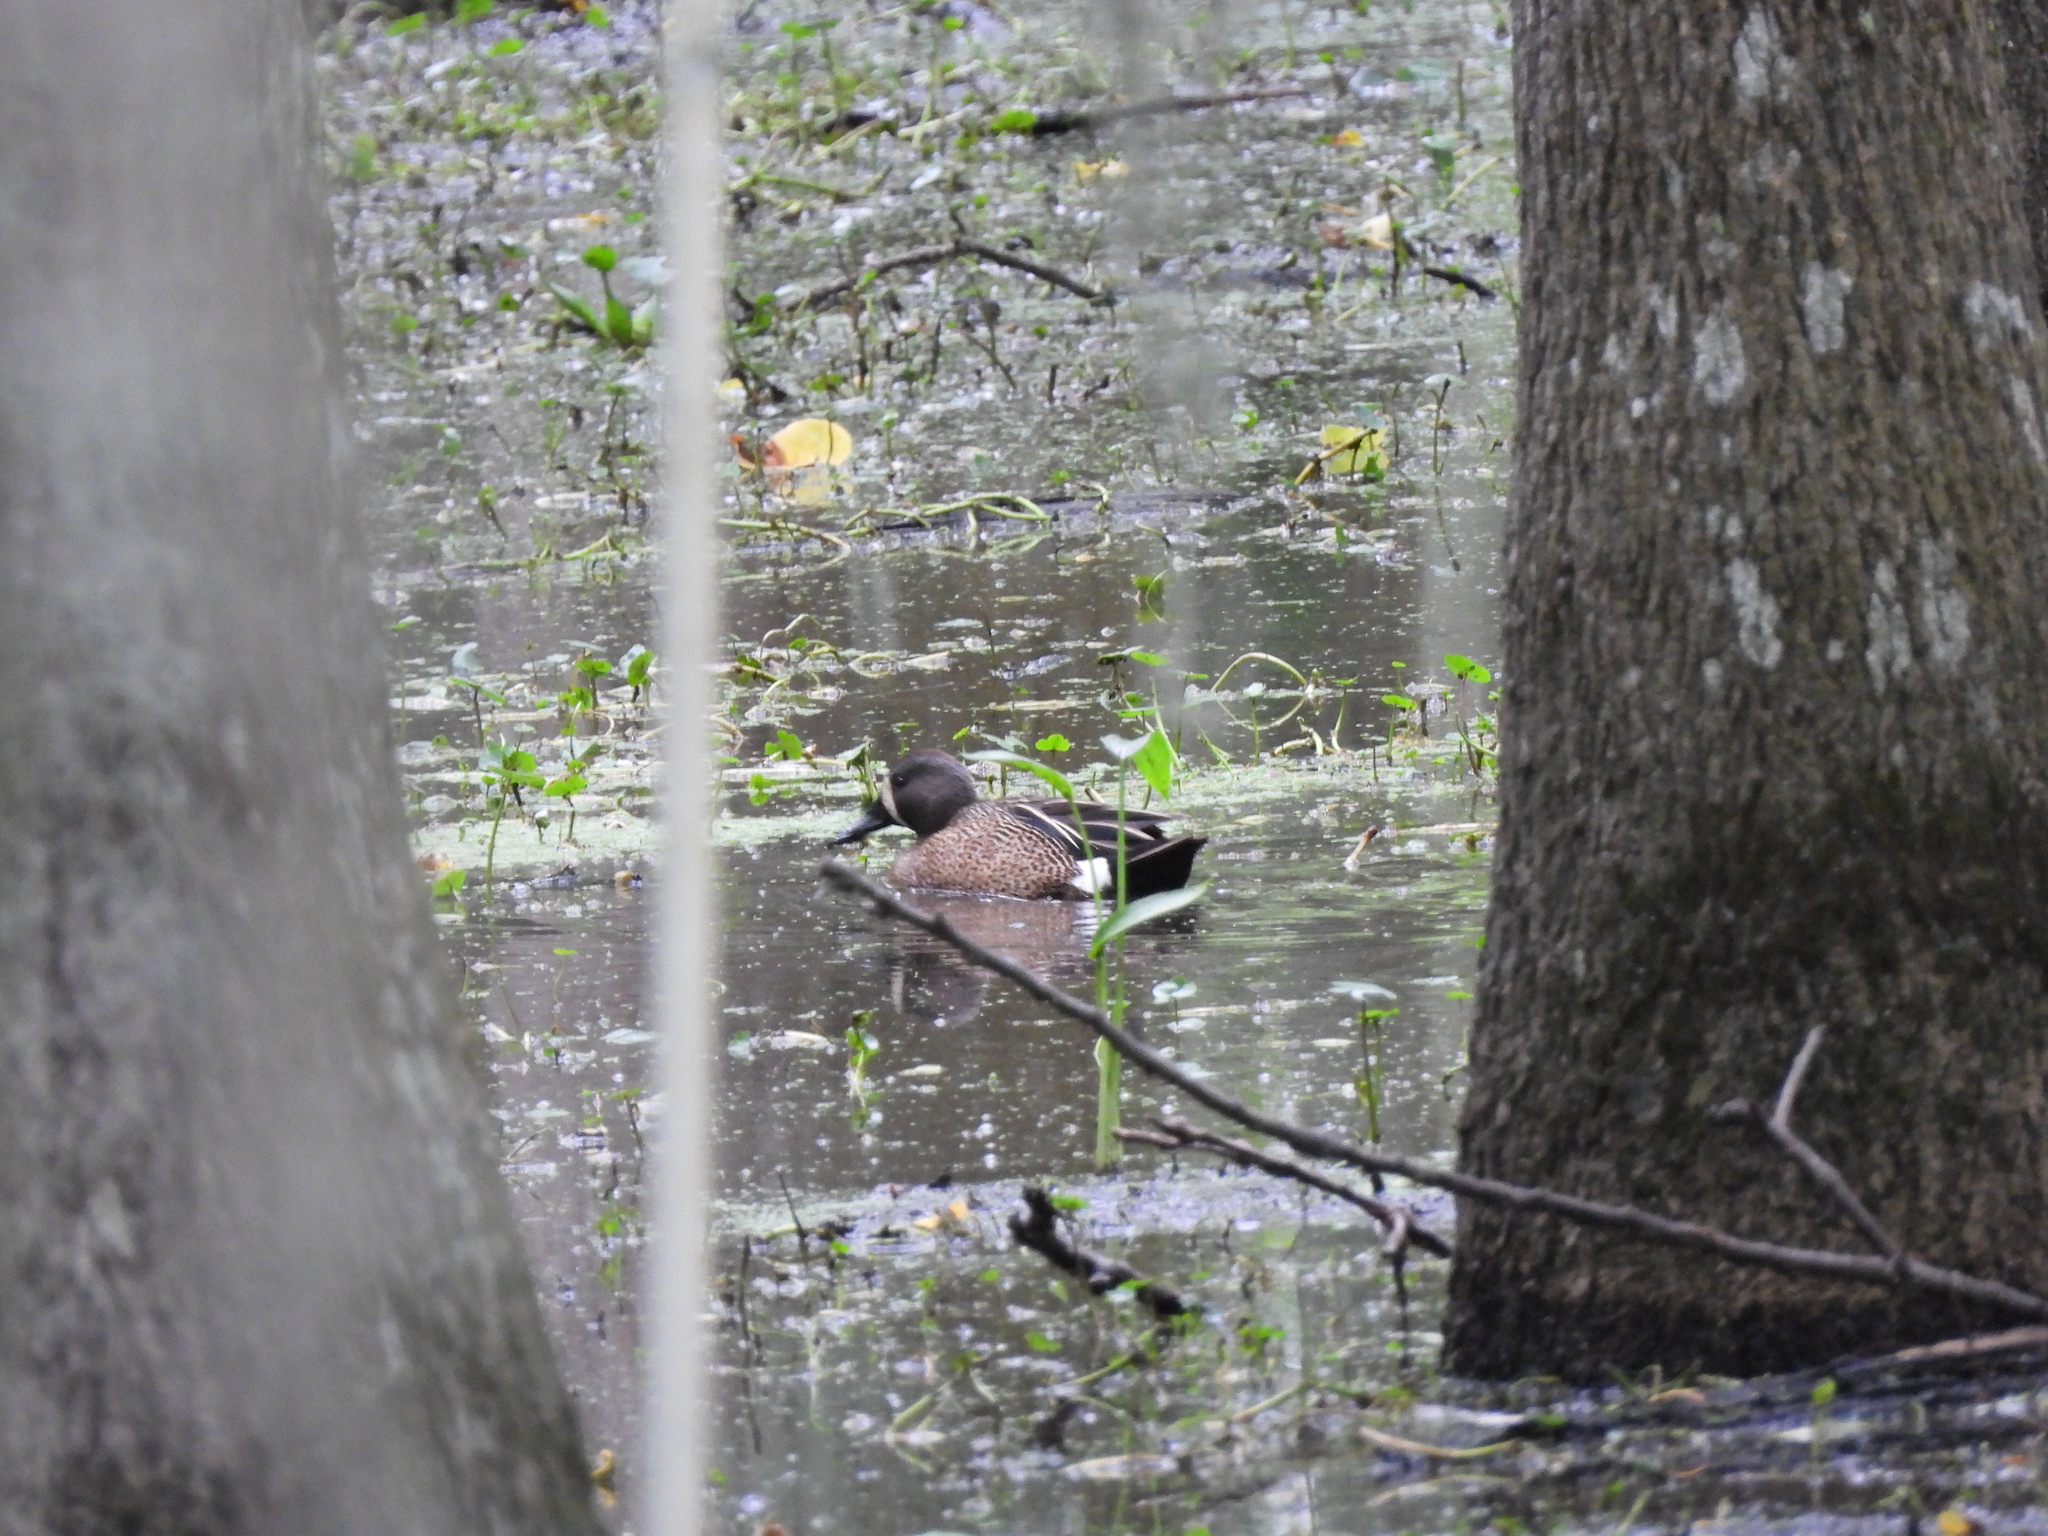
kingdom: Animalia
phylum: Chordata
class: Aves
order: Anseriformes
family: Anatidae
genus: Spatula
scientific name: Spatula discors
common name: Blue-winged teal
